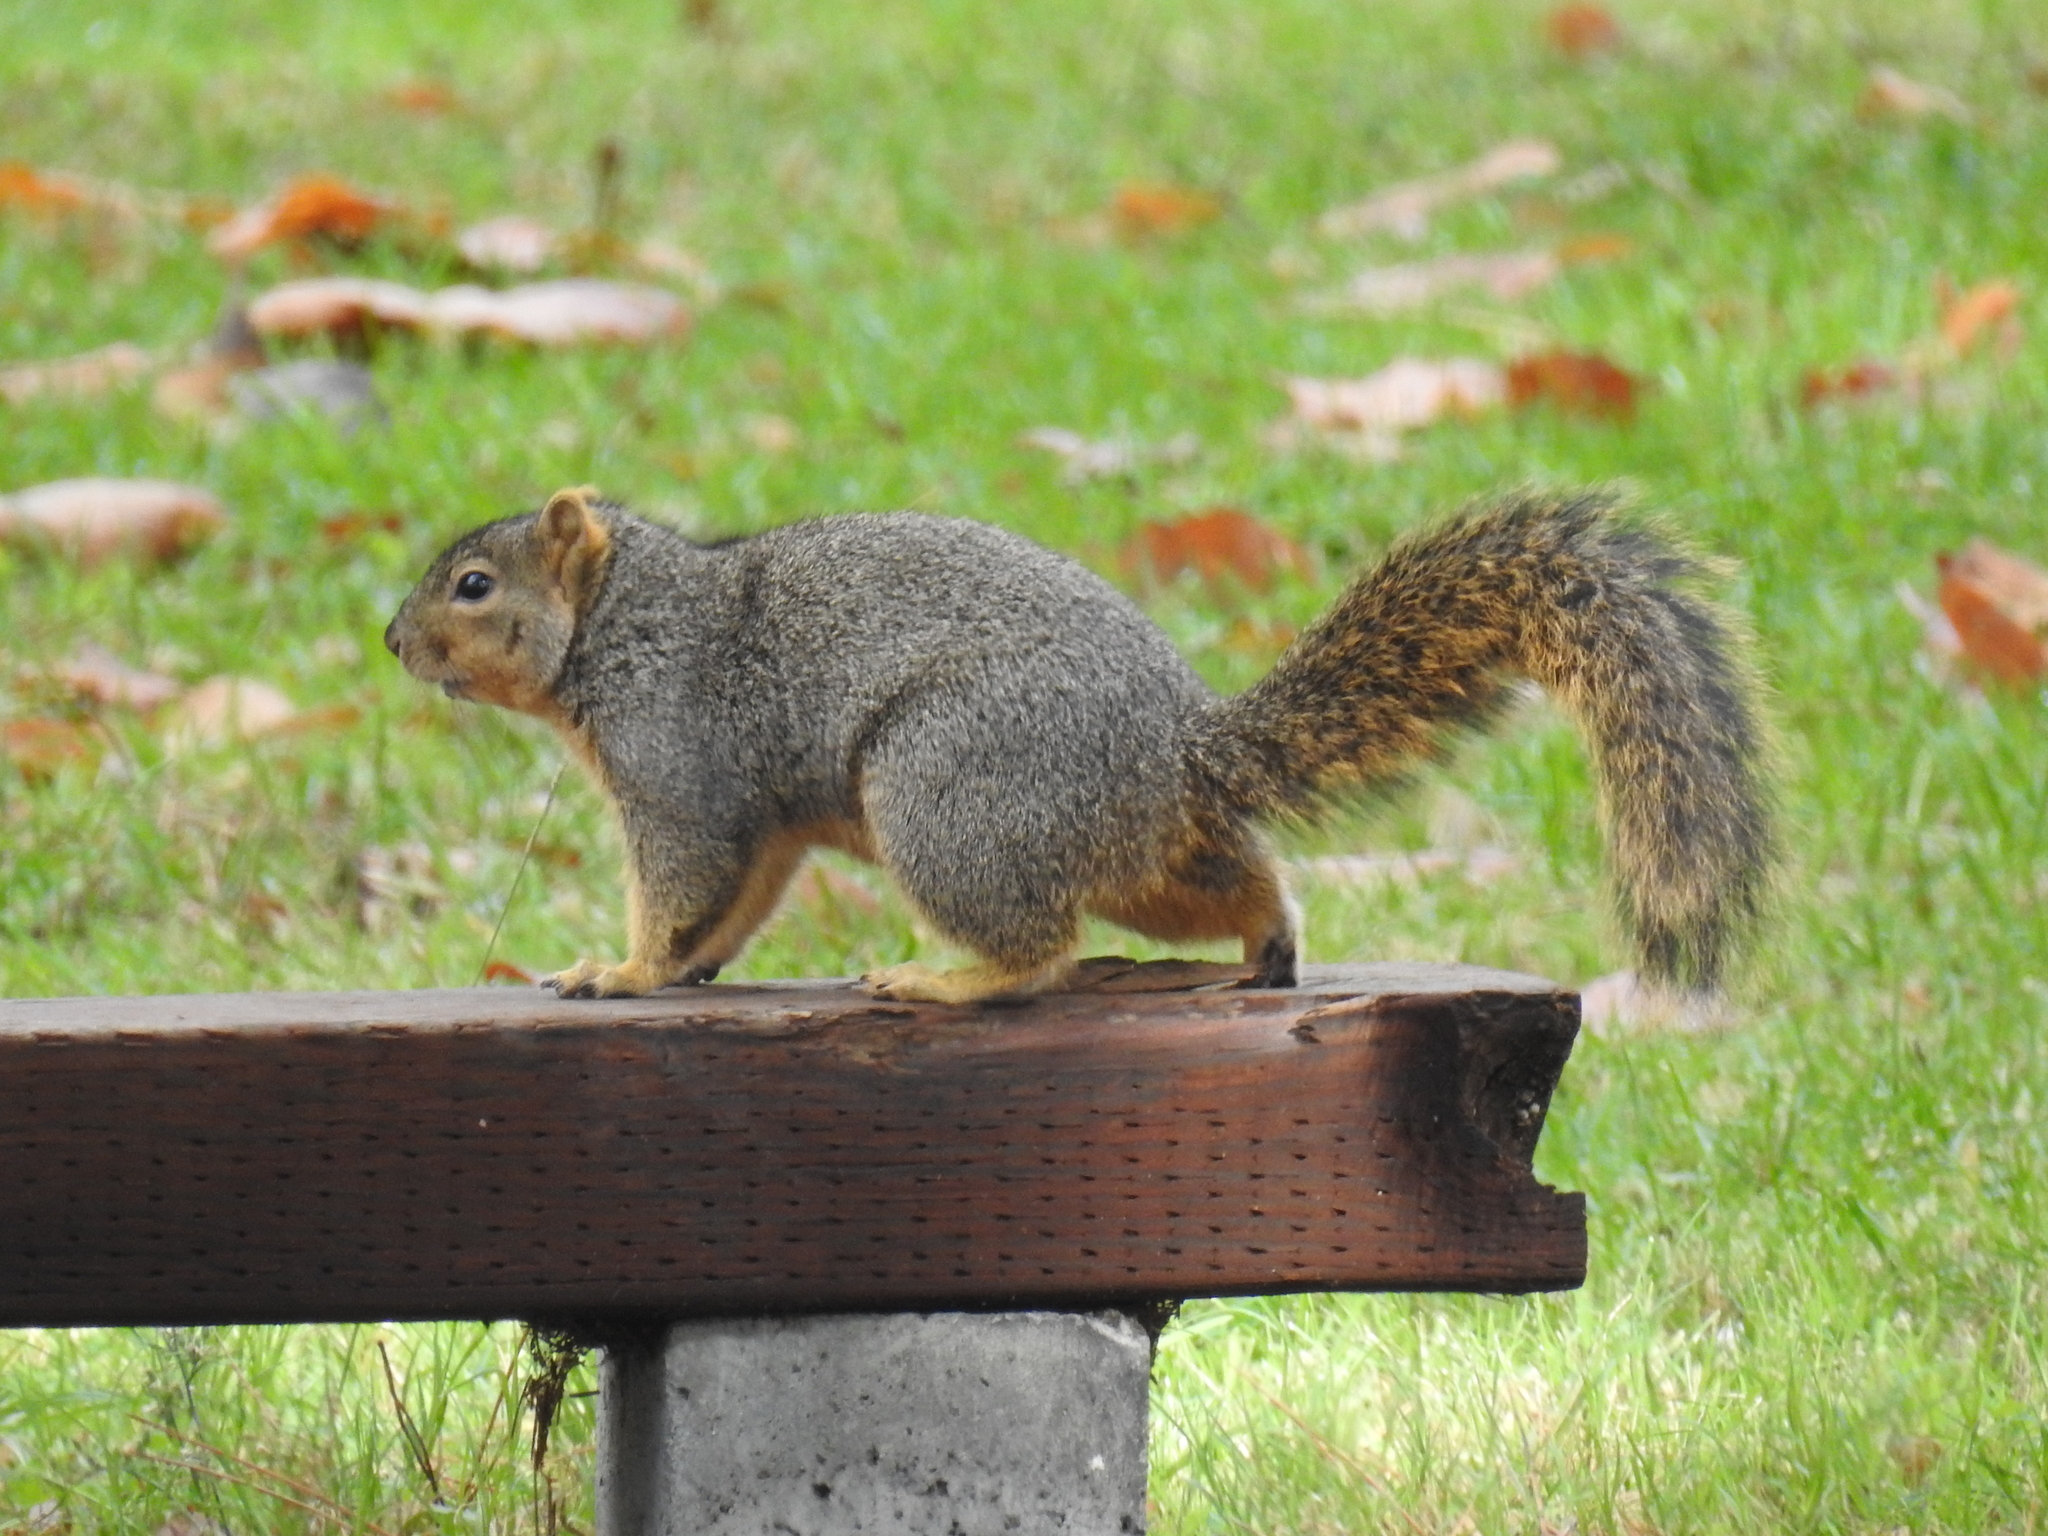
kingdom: Animalia
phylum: Chordata
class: Mammalia
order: Rodentia
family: Sciuridae
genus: Sciurus
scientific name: Sciurus niger
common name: Fox squirrel
